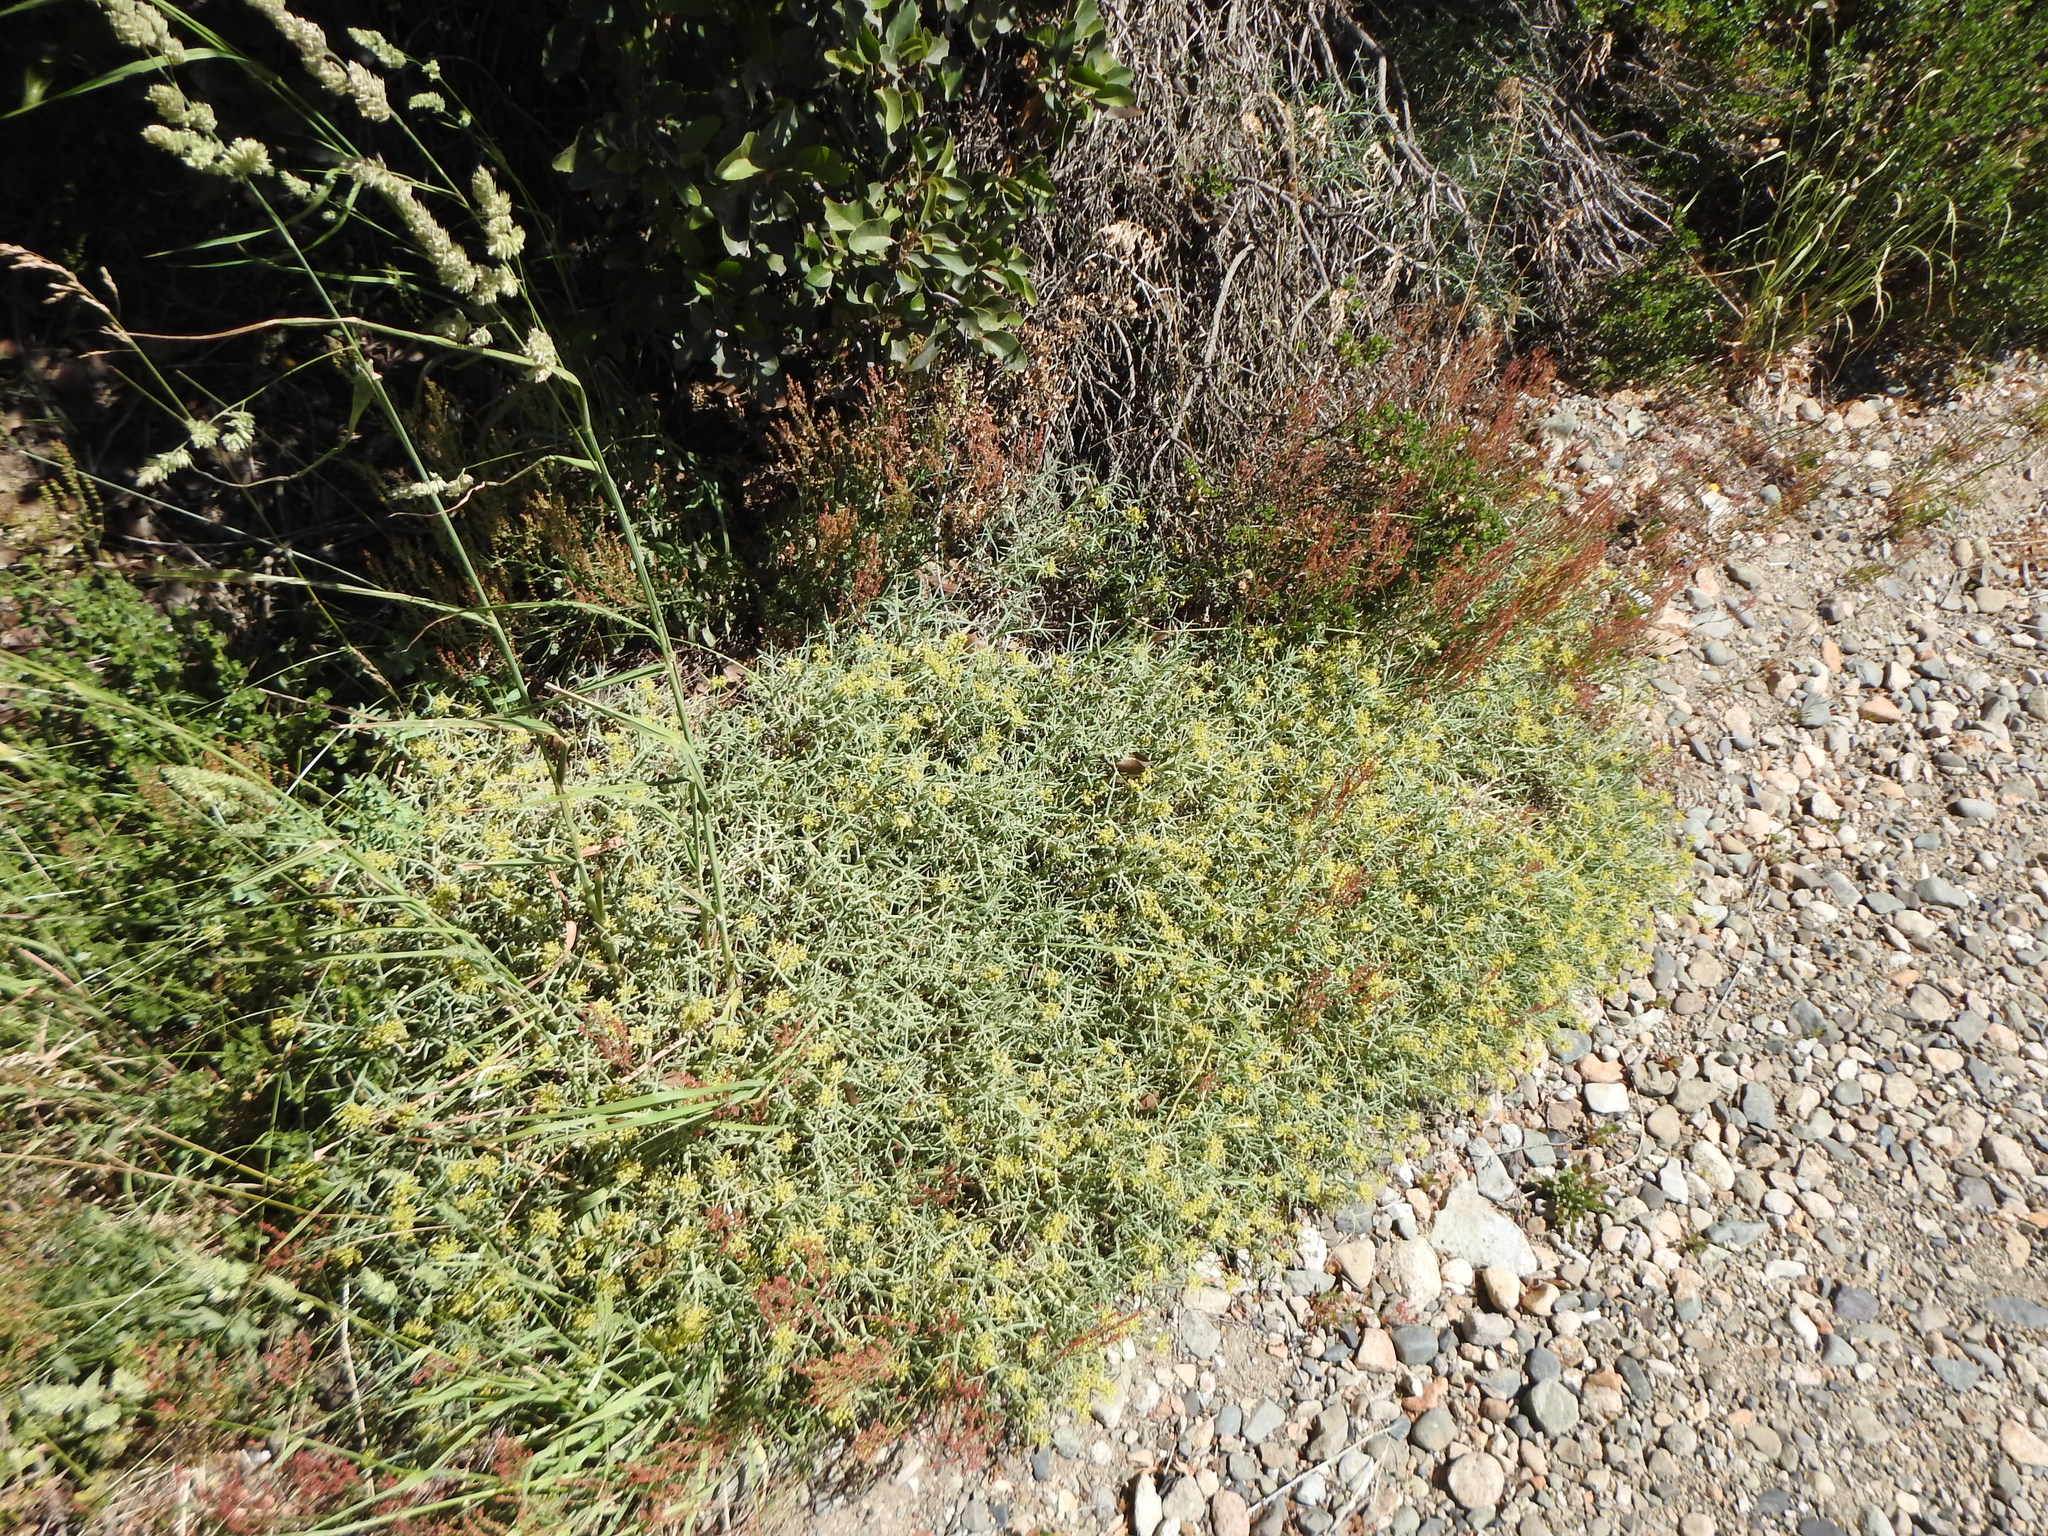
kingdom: Plantae
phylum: Tracheophyta
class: Magnoliopsida
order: Apiales
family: Apiaceae
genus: Azorella
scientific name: Azorella prolifera
